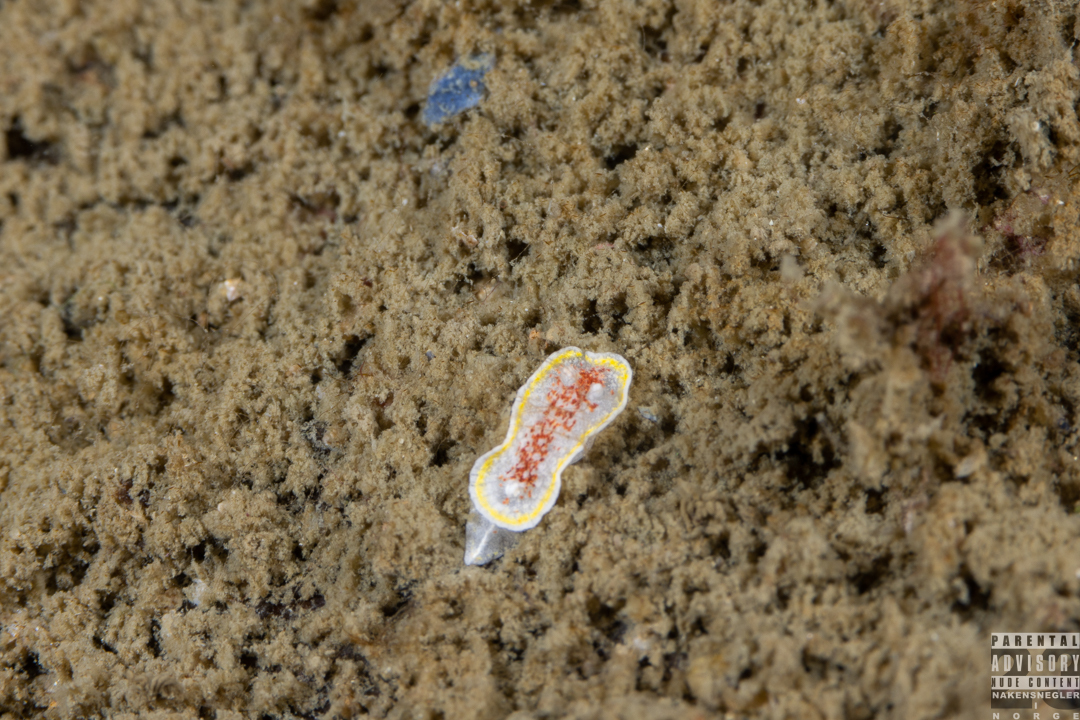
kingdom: Animalia
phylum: Mollusca
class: Gastropoda
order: Nudibranchia
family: Calycidorididae
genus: Diaphorodoris
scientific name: Diaphorodoris luteocincta
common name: Fried egg nudibranch
